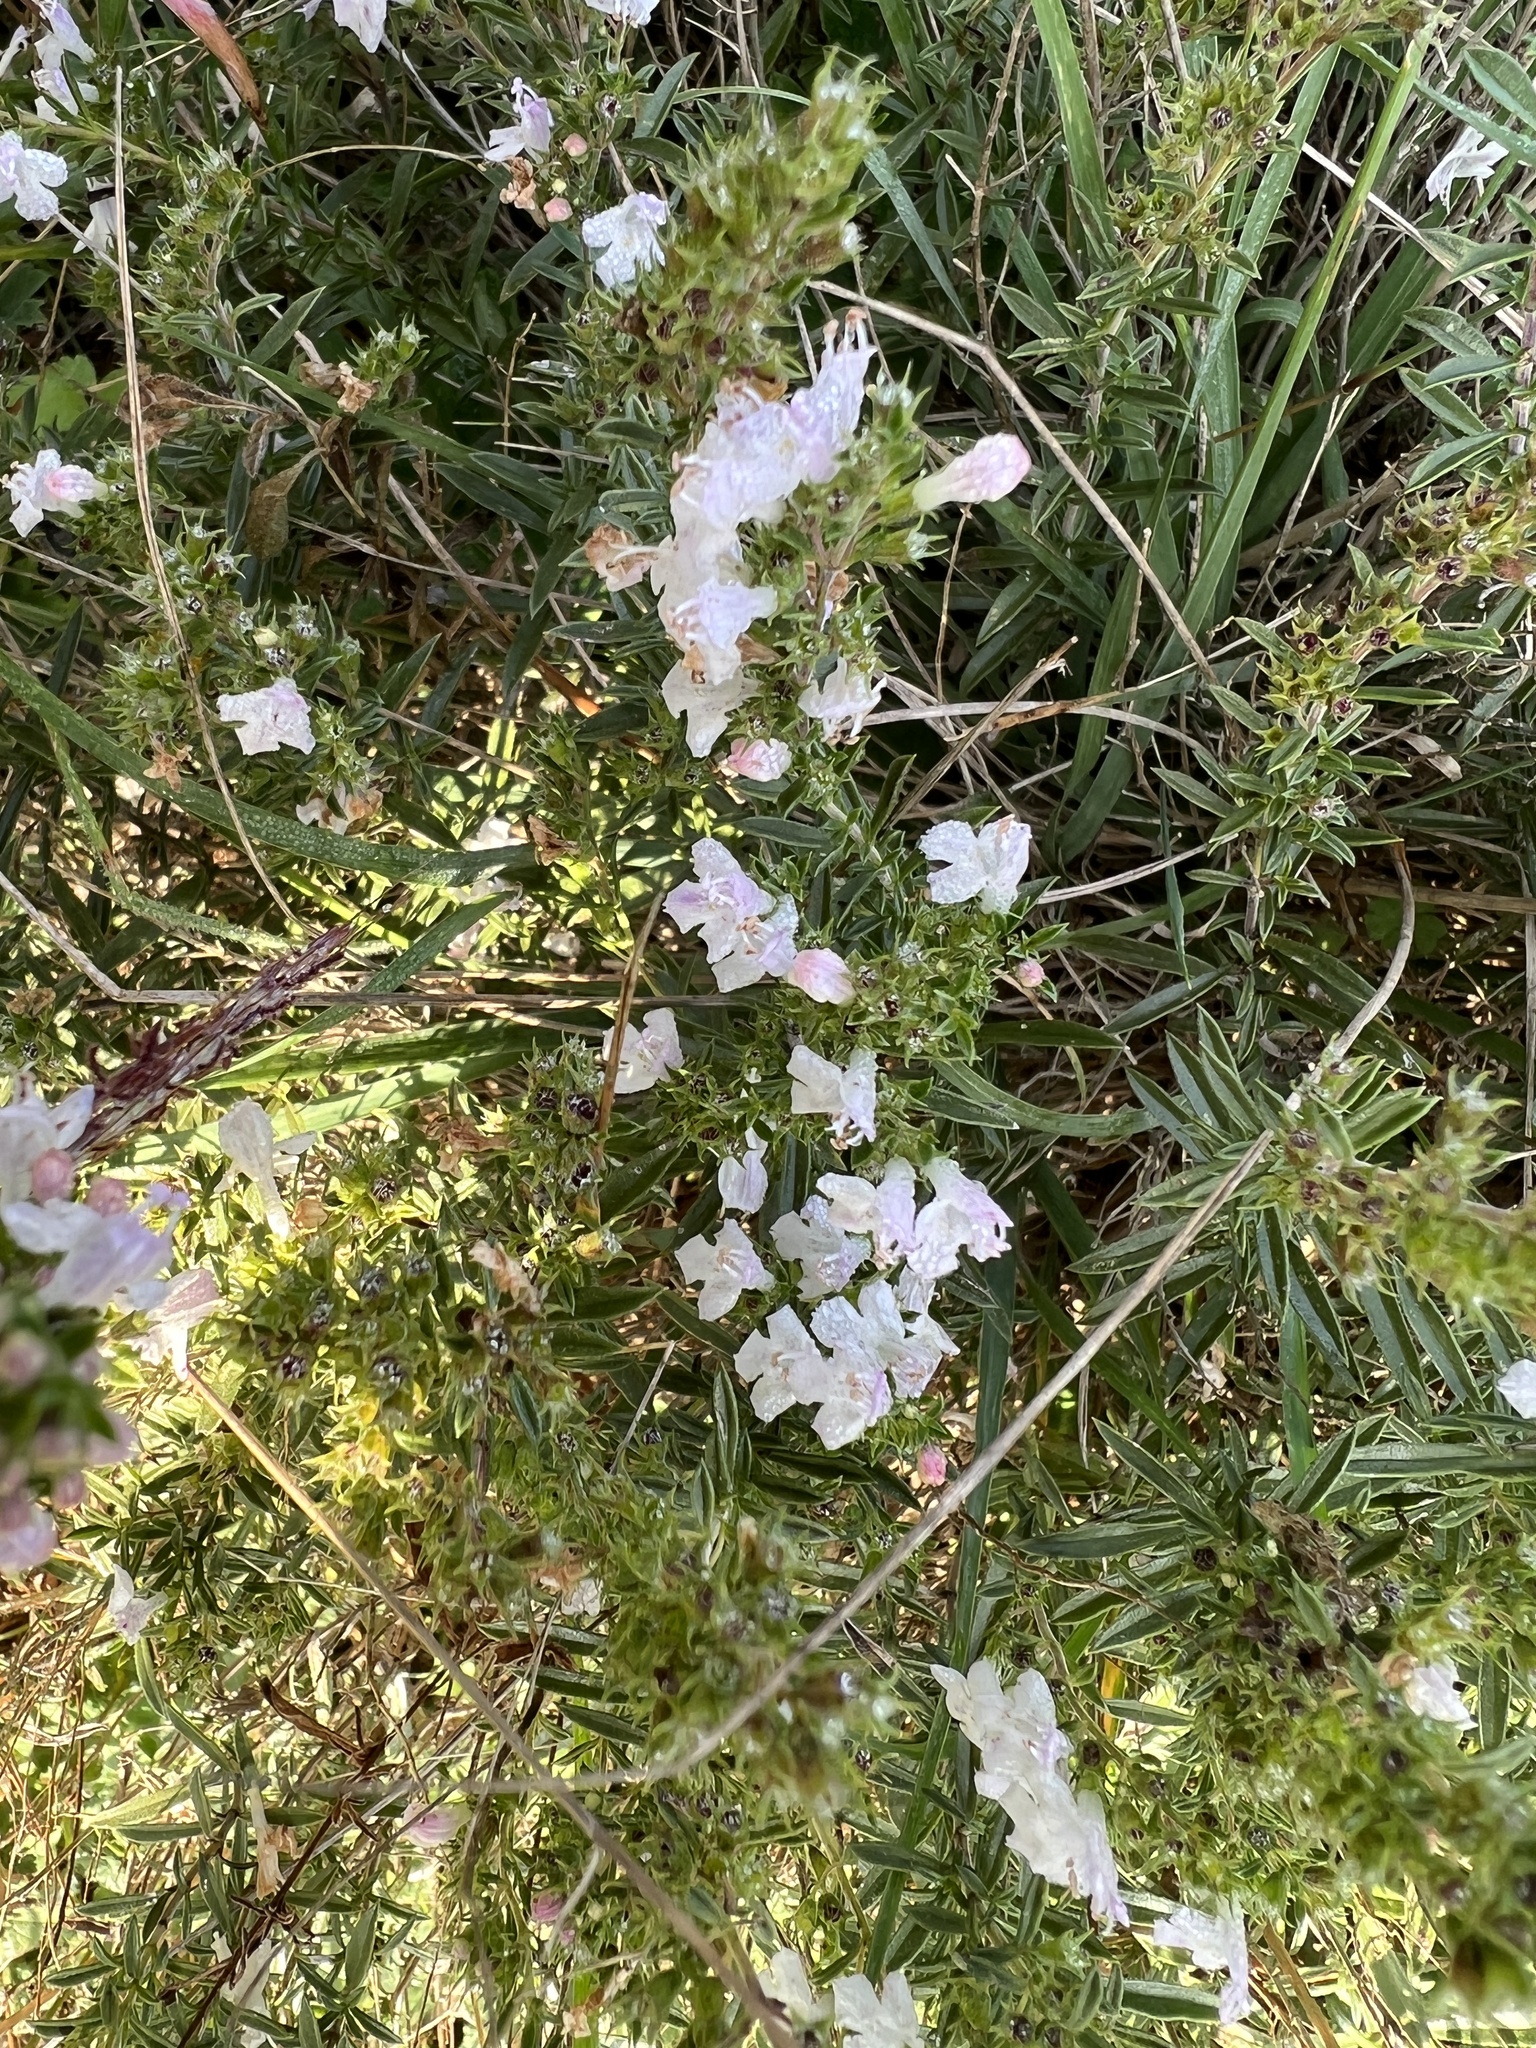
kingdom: Plantae
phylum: Tracheophyta
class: Magnoliopsida
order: Lamiales
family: Lamiaceae
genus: Satureja
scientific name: Satureja montana
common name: Winter savory
